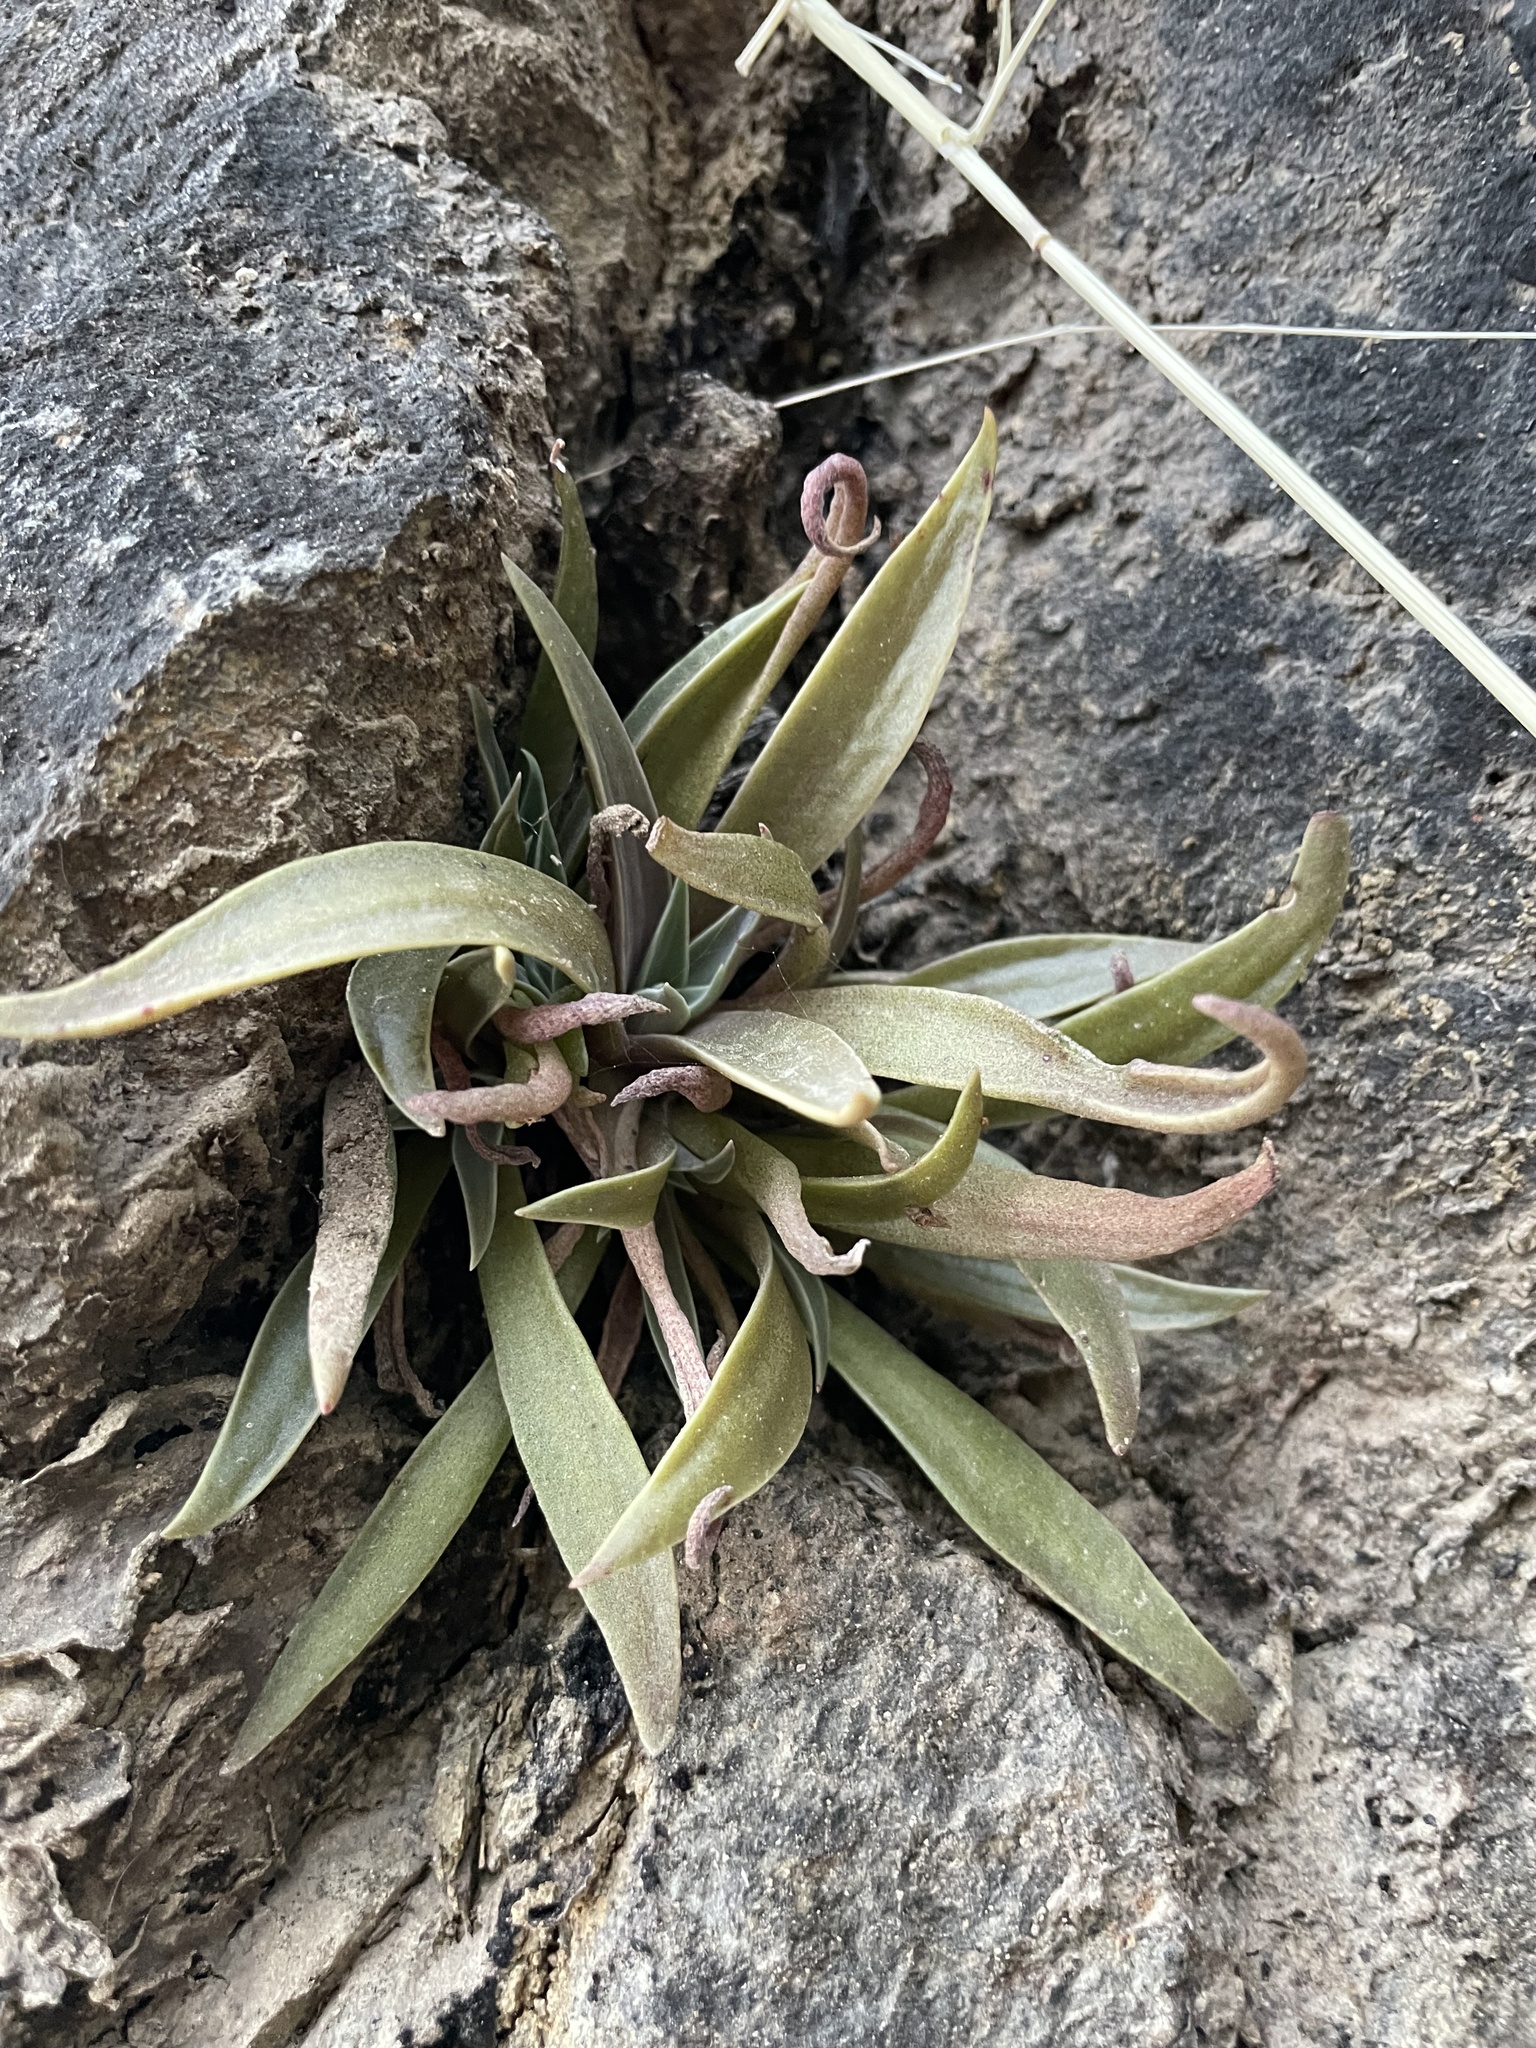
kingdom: Plantae
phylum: Tracheophyta
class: Magnoliopsida
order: Saxifragales
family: Crassulaceae
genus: Dudleya
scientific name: Dudleya lanceolata
